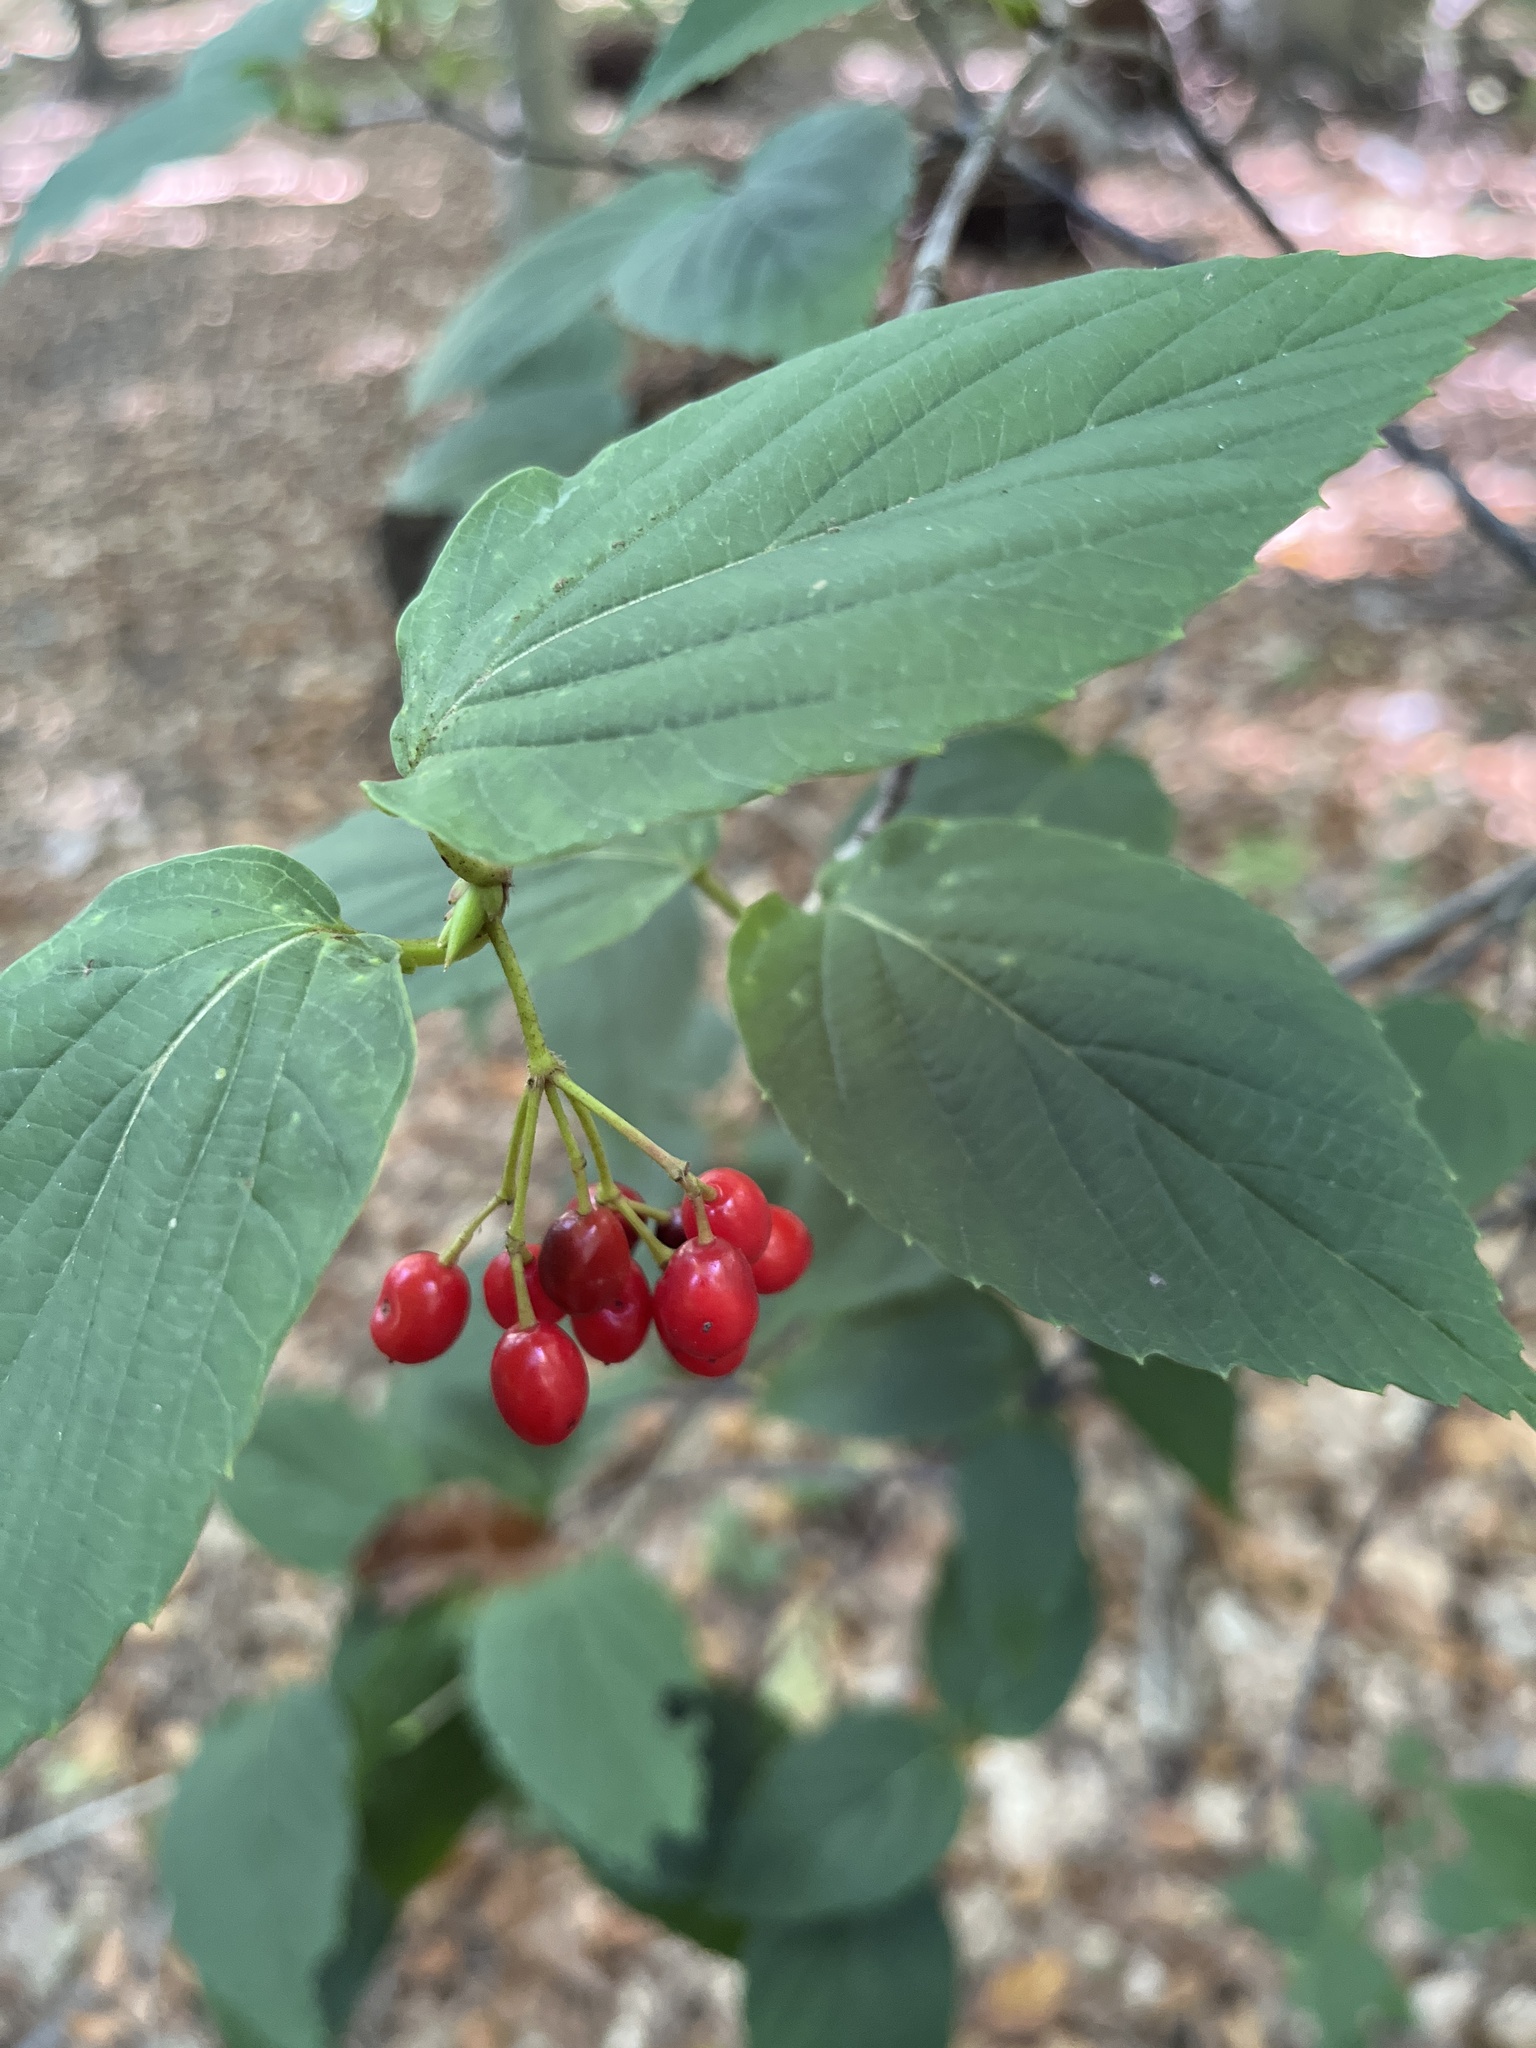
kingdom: Plantae
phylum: Tracheophyta
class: Magnoliopsida
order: Dipsacales
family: Viburnaceae
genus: Viburnum
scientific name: Viburnum setigerum
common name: Tea viburnum
